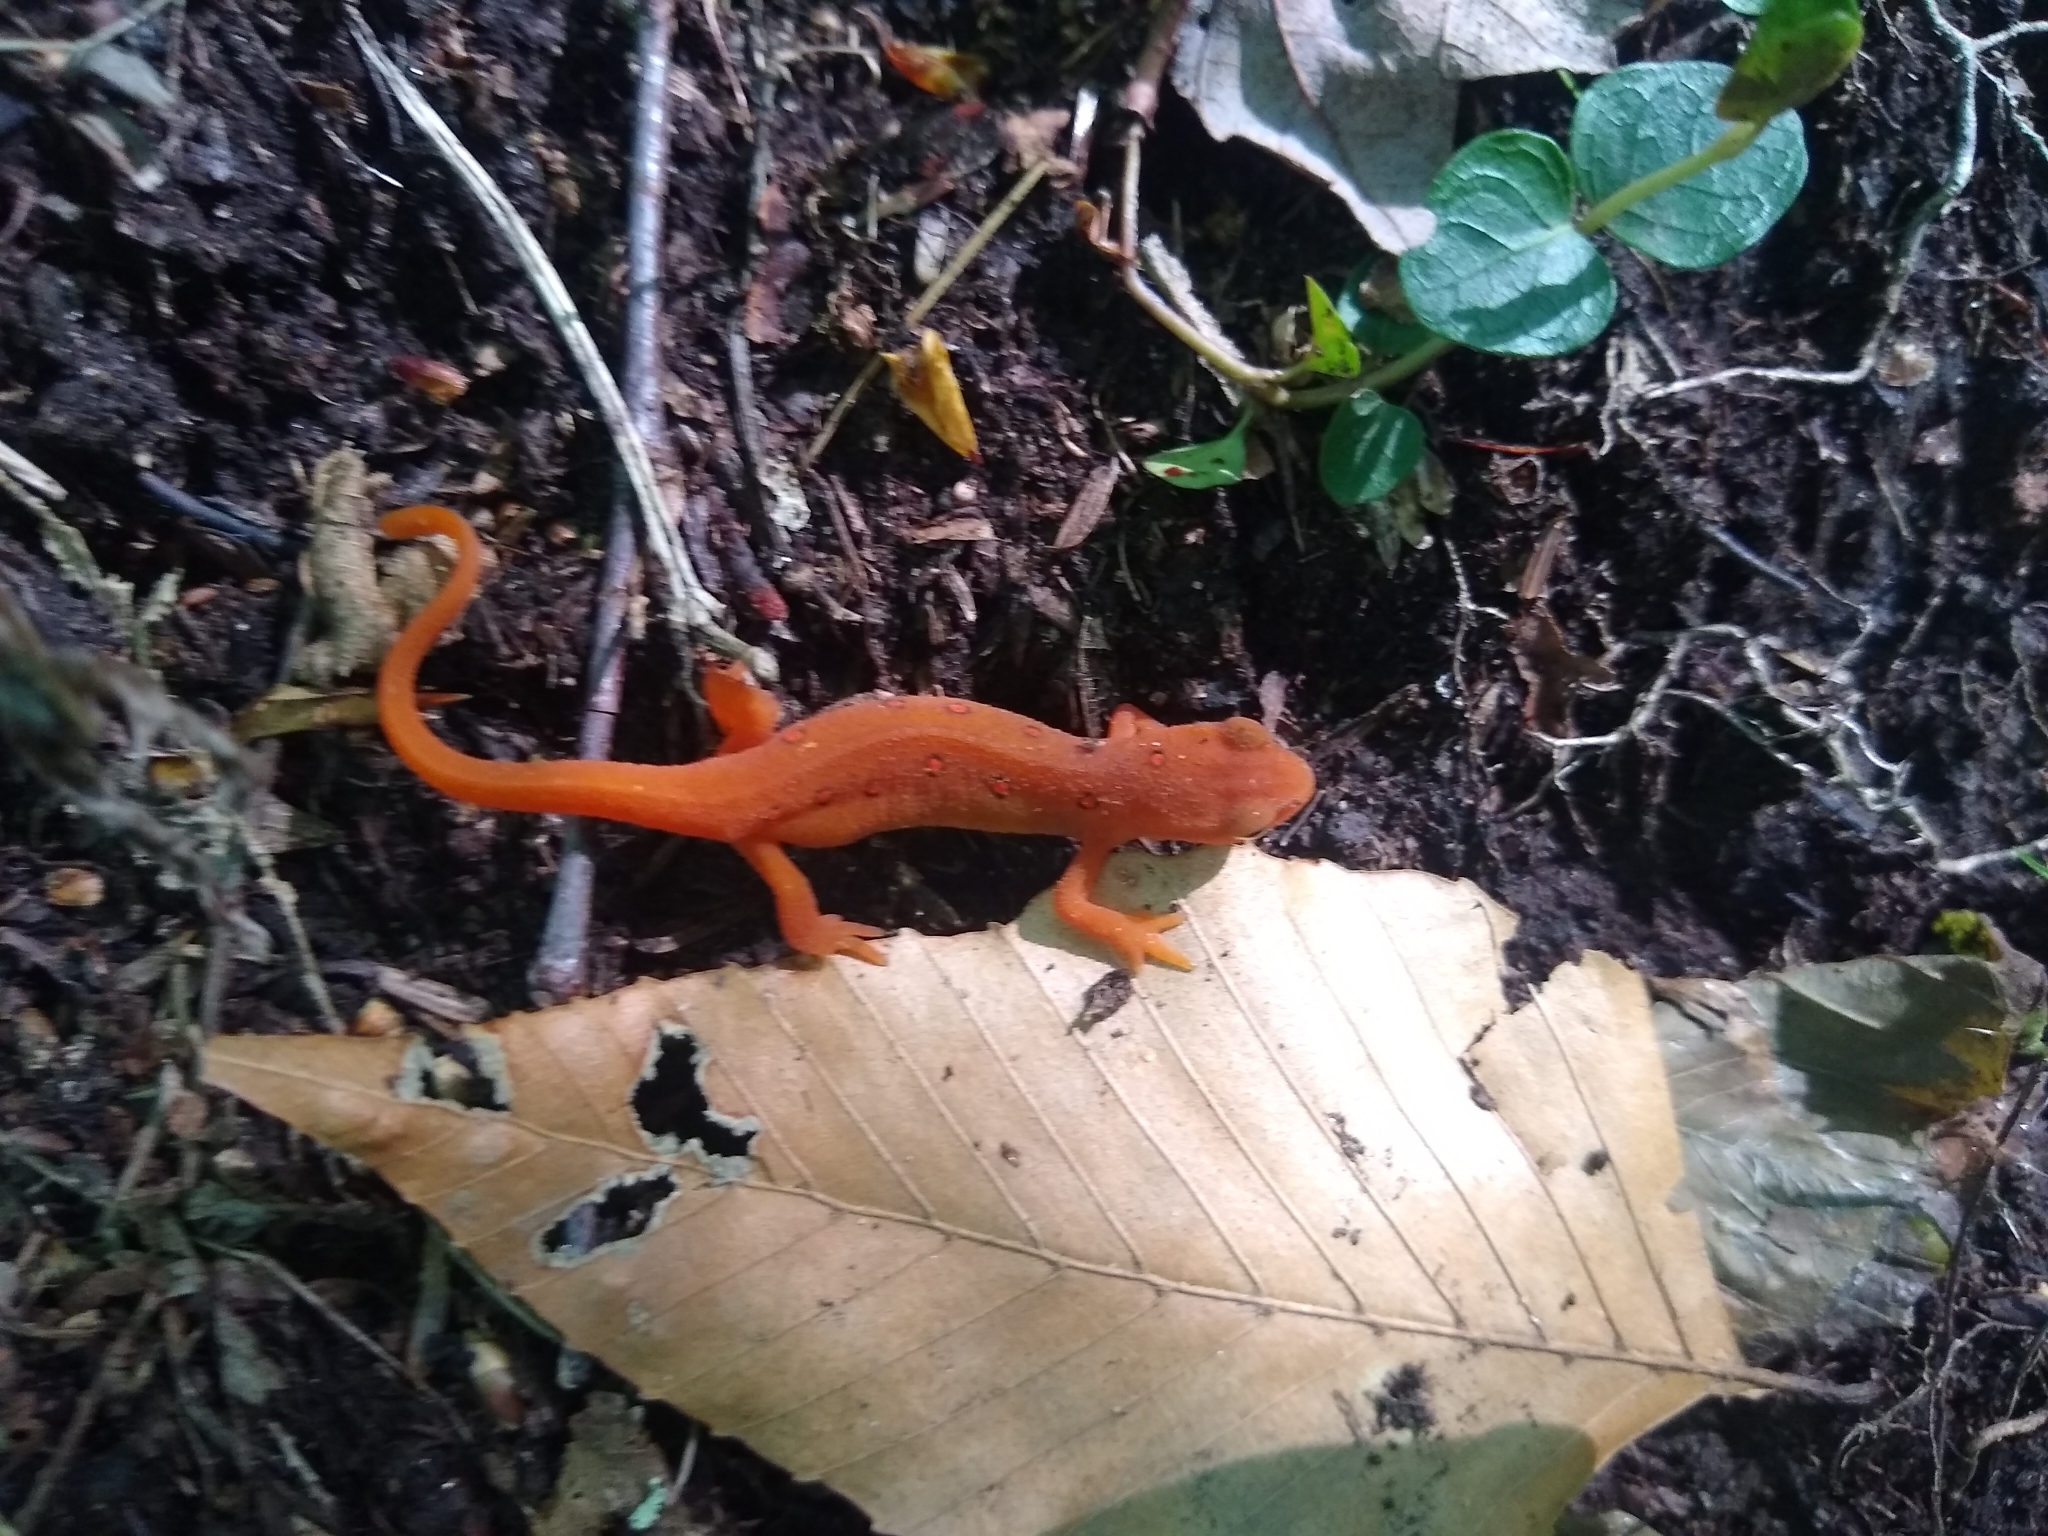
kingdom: Animalia
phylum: Chordata
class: Amphibia
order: Caudata
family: Salamandridae
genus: Notophthalmus
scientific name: Notophthalmus viridescens
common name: Eastern newt
